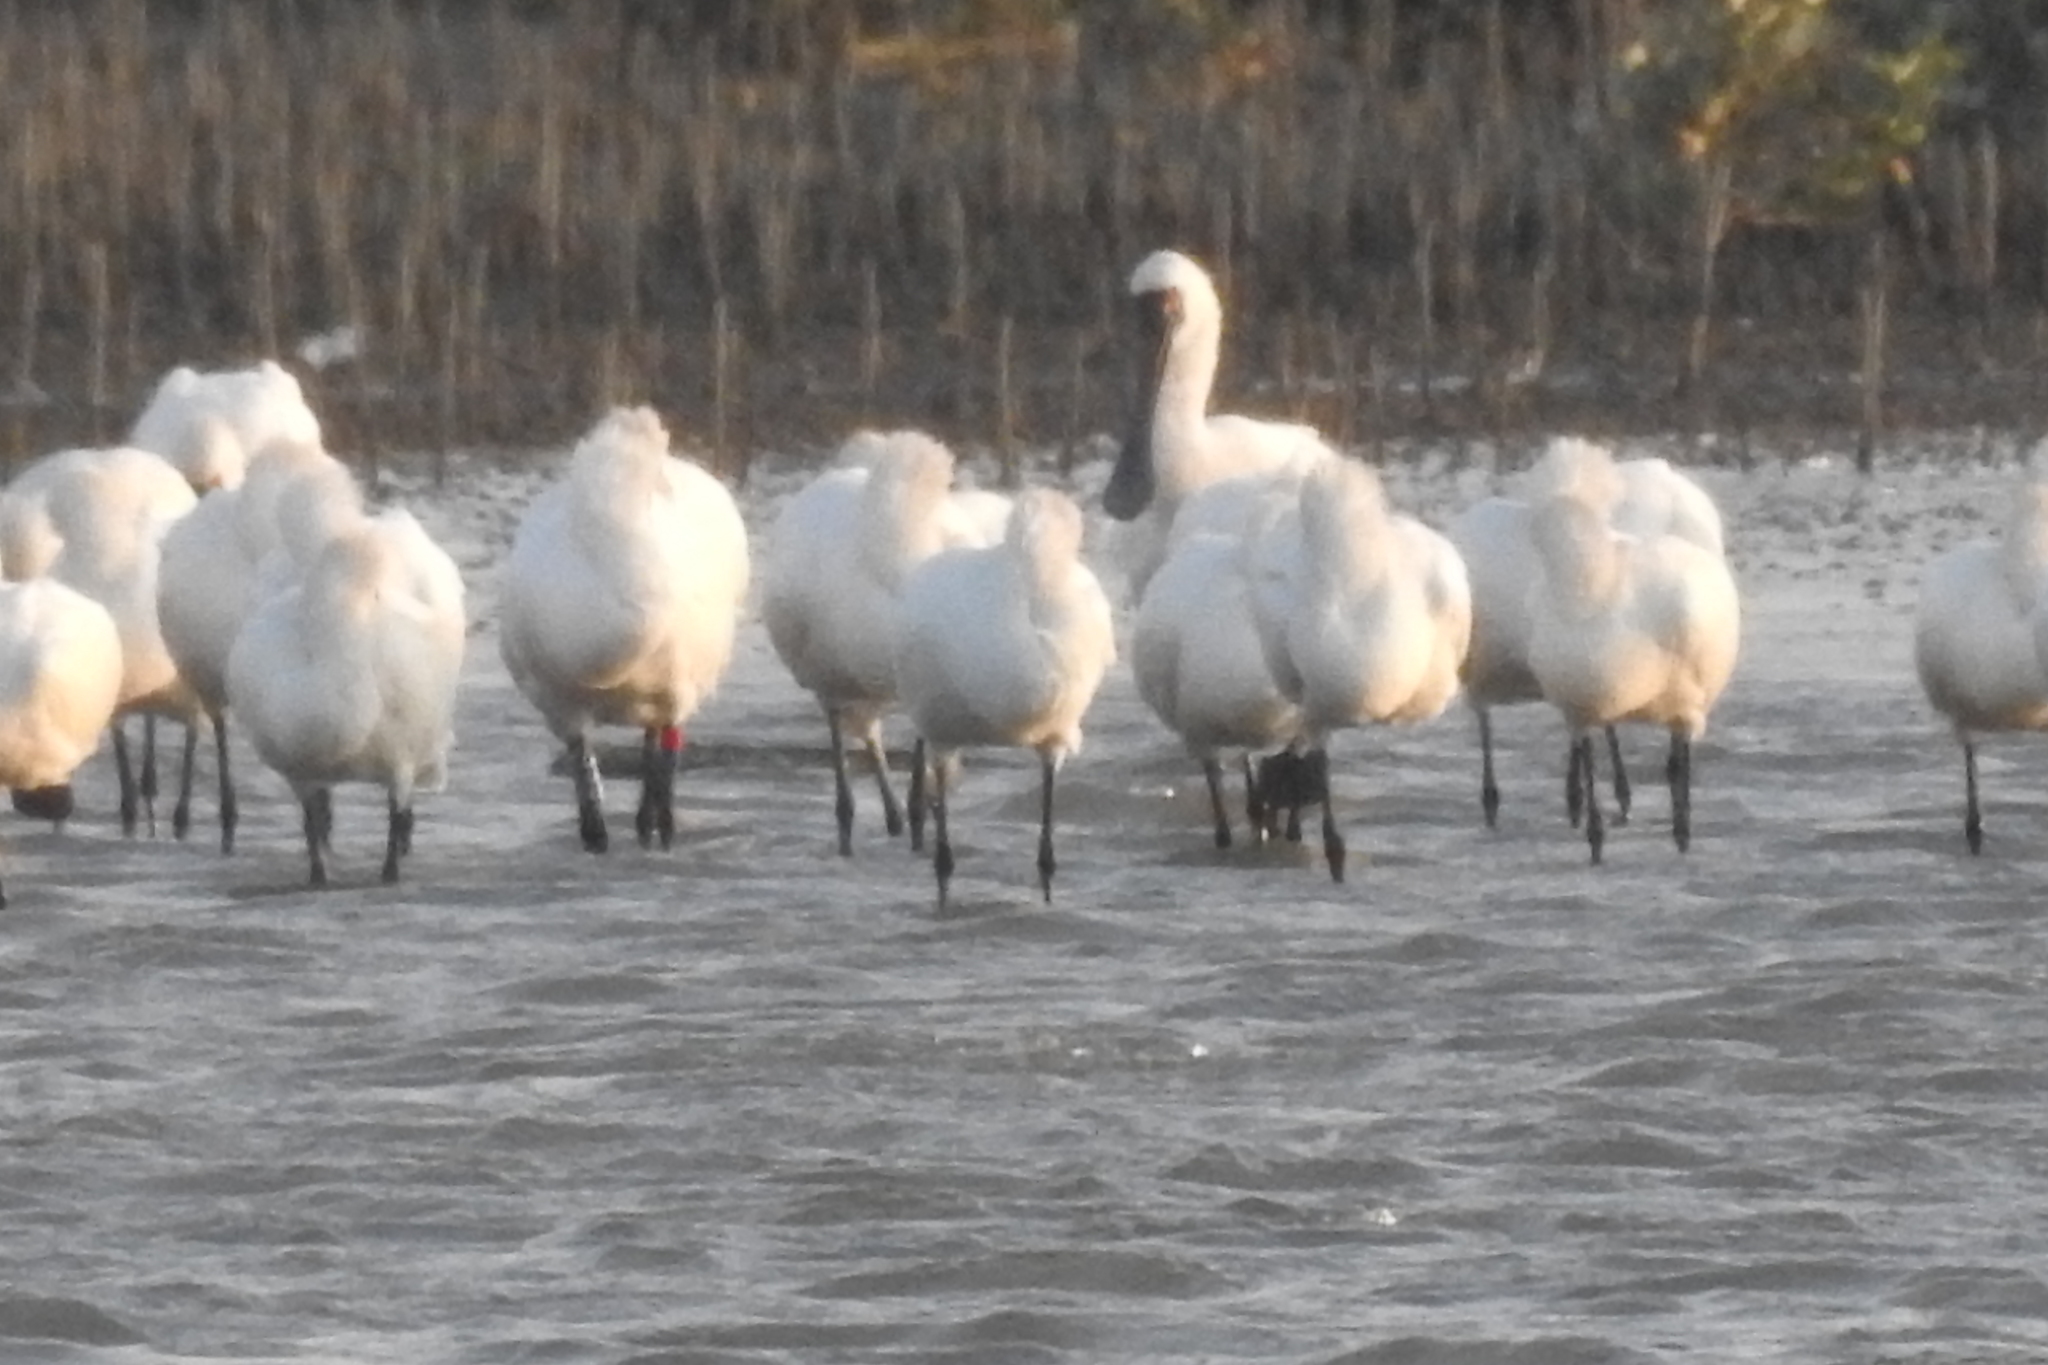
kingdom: Animalia
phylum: Chordata
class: Aves
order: Pelecaniformes
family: Threskiornithidae
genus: Platalea
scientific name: Platalea minor
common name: Black-faced spoonbill
